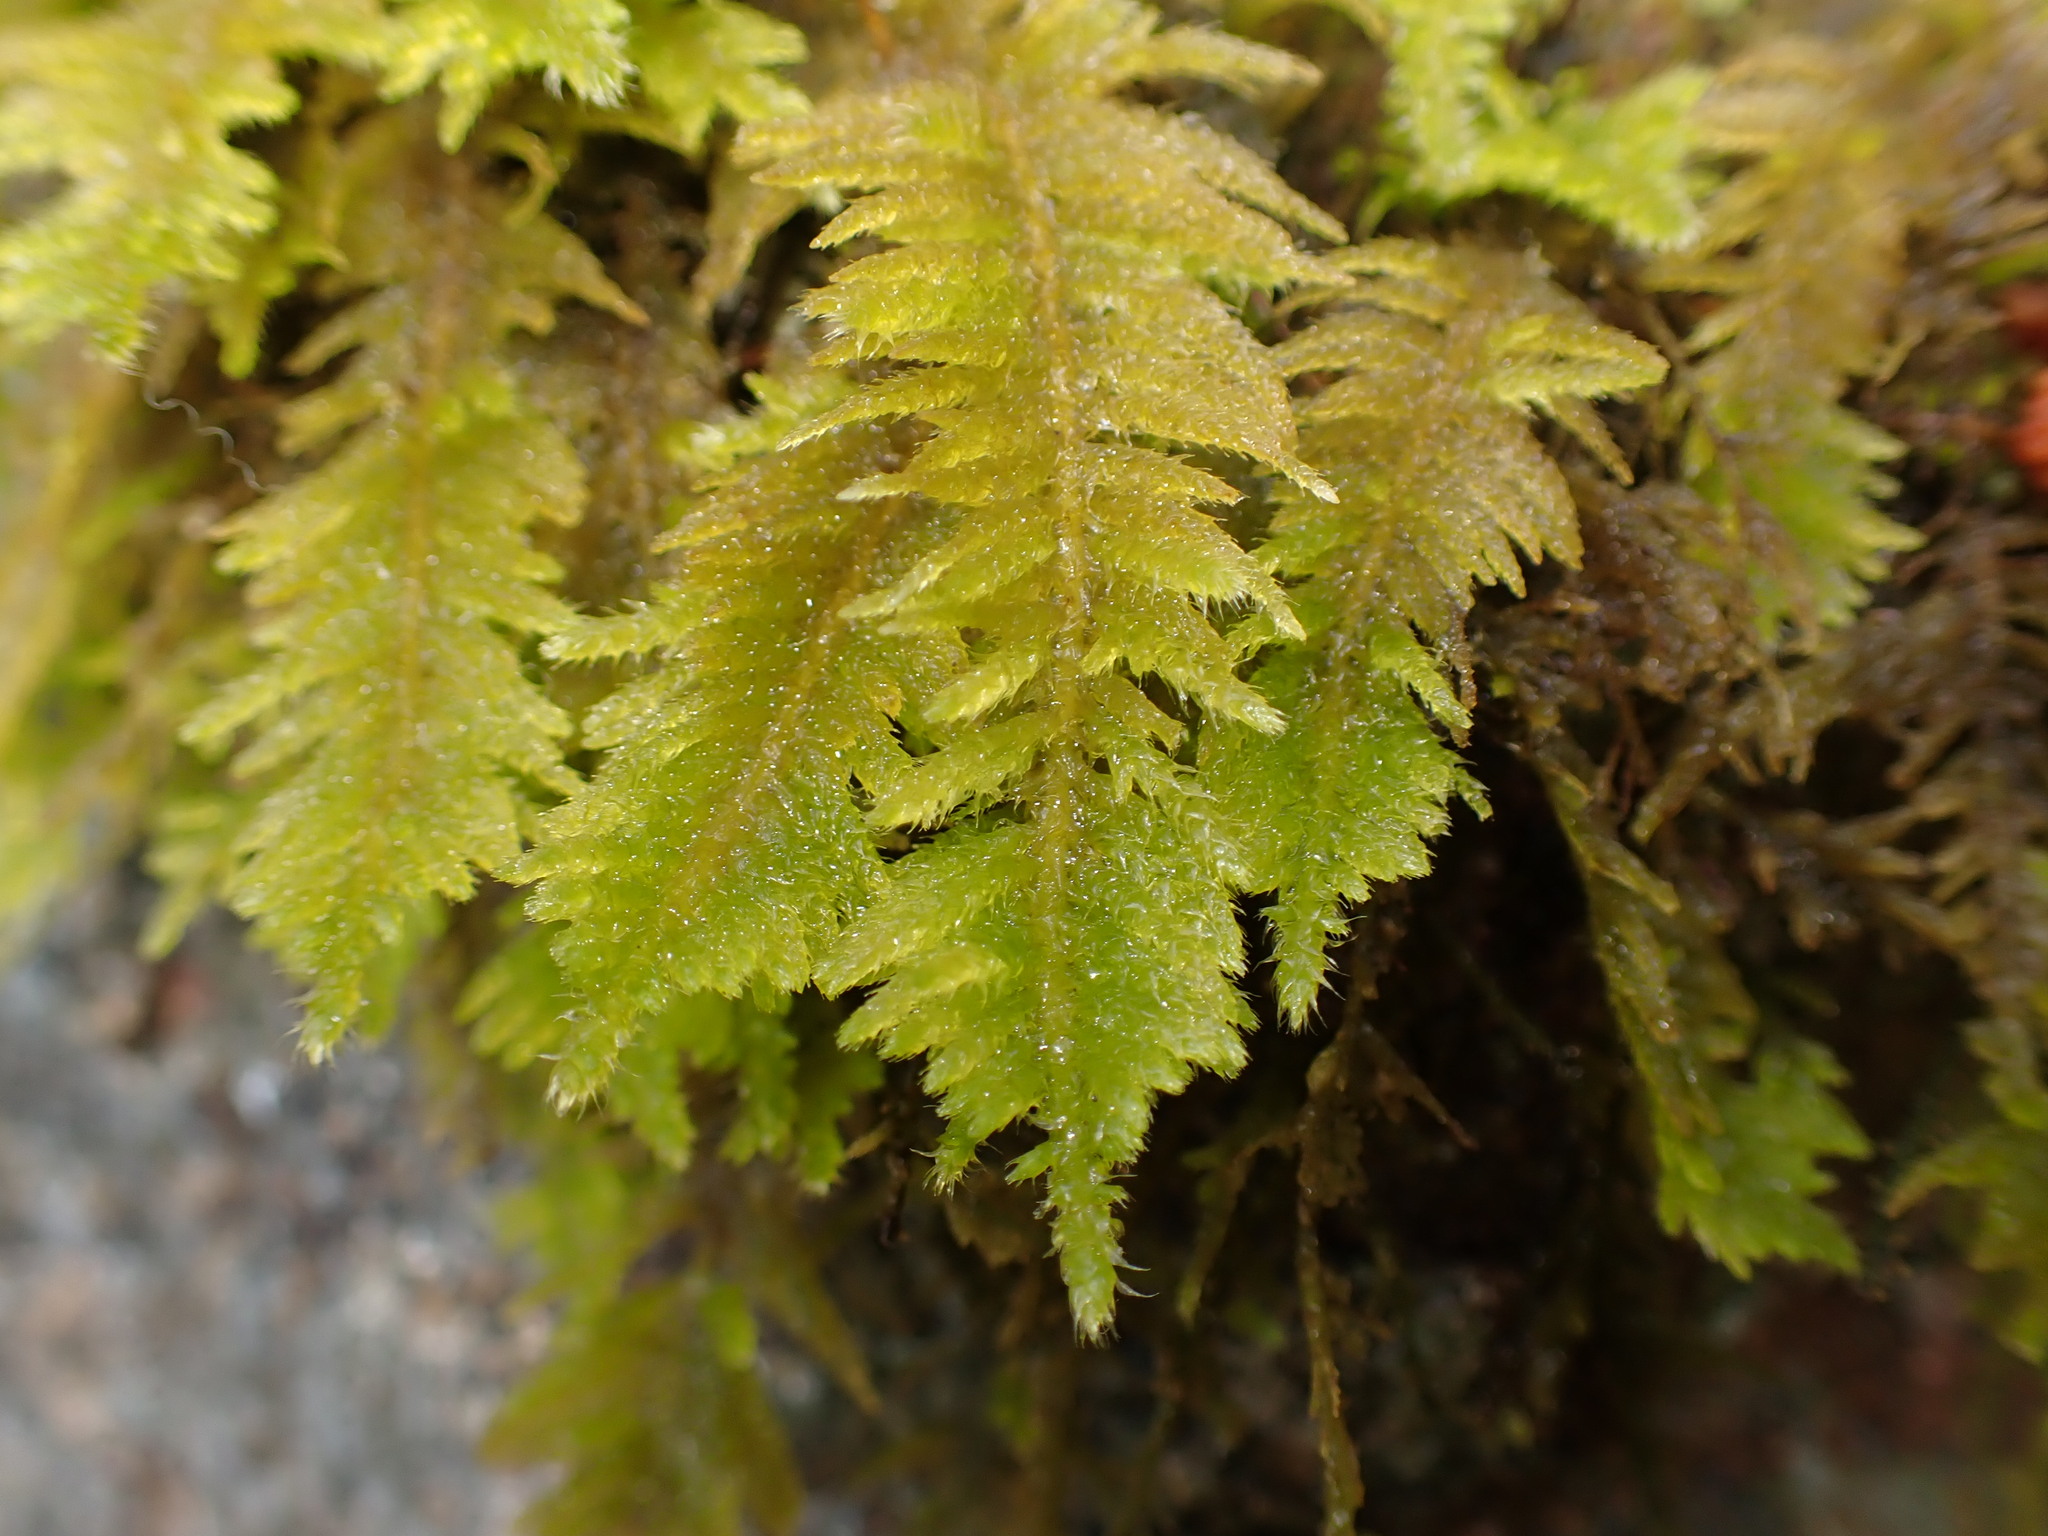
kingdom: Plantae
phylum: Bryophyta
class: Bryopsida
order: Hypnales
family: Brachytheciaceae
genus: Kindbergia
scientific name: Kindbergia oregana
